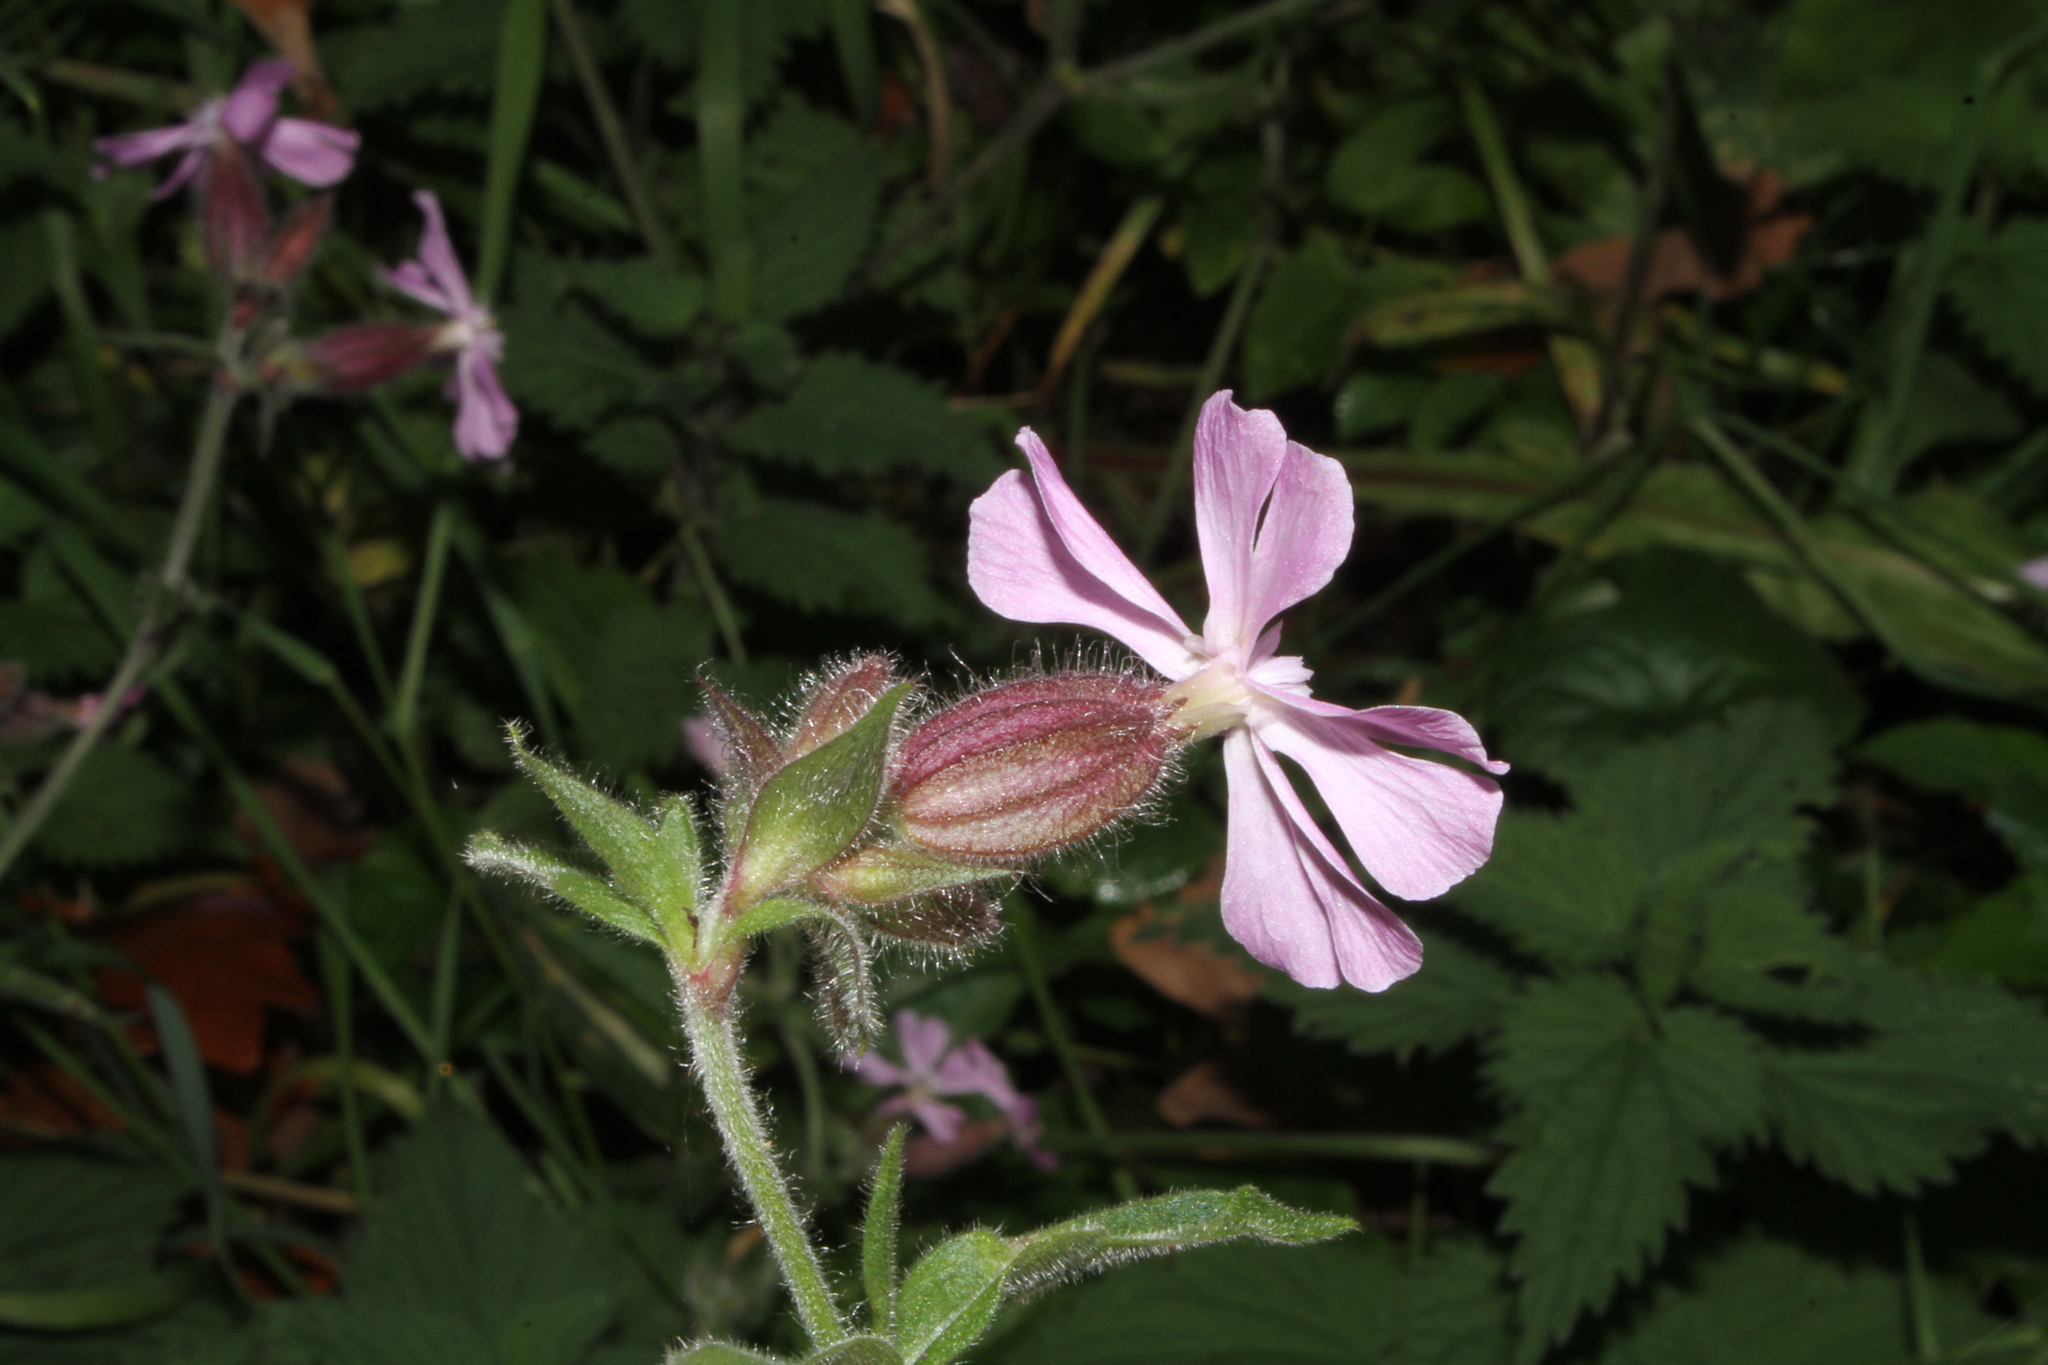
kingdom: Plantae
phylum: Tracheophyta
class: Magnoliopsida
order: Caryophyllales
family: Caryophyllaceae
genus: Silene
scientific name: Silene dioica
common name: Red campion
